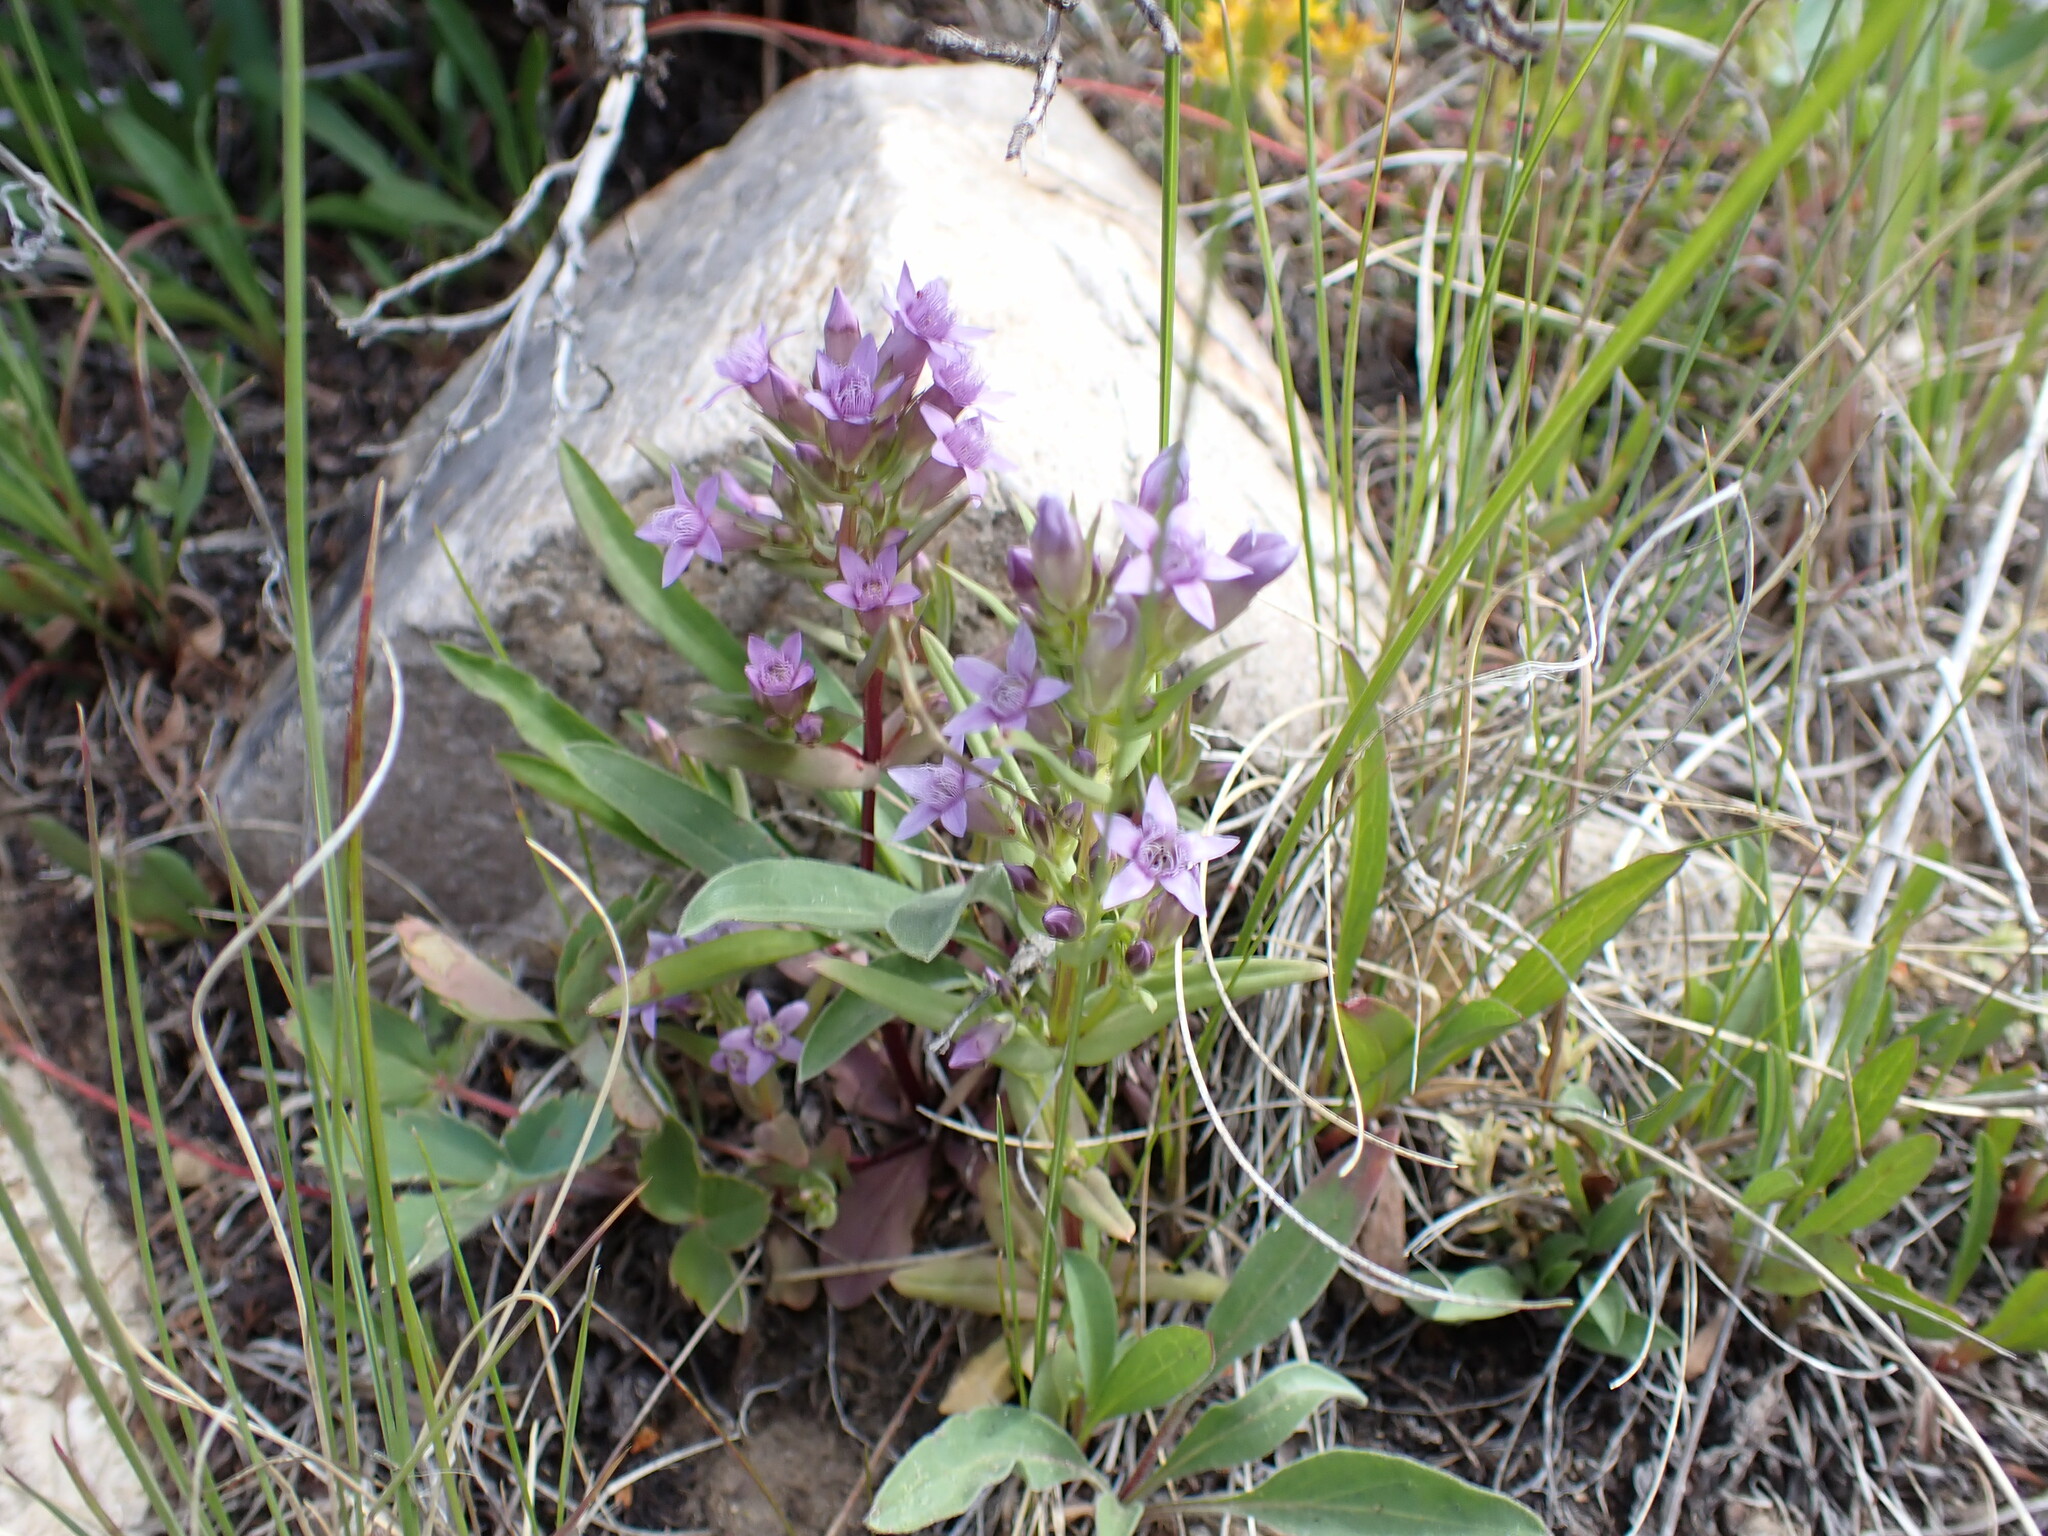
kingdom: Plantae
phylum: Tracheophyta
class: Magnoliopsida
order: Gentianales
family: Gentianaceae
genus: Gentianella
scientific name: Gentianella amarella
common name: Autumn gentian
